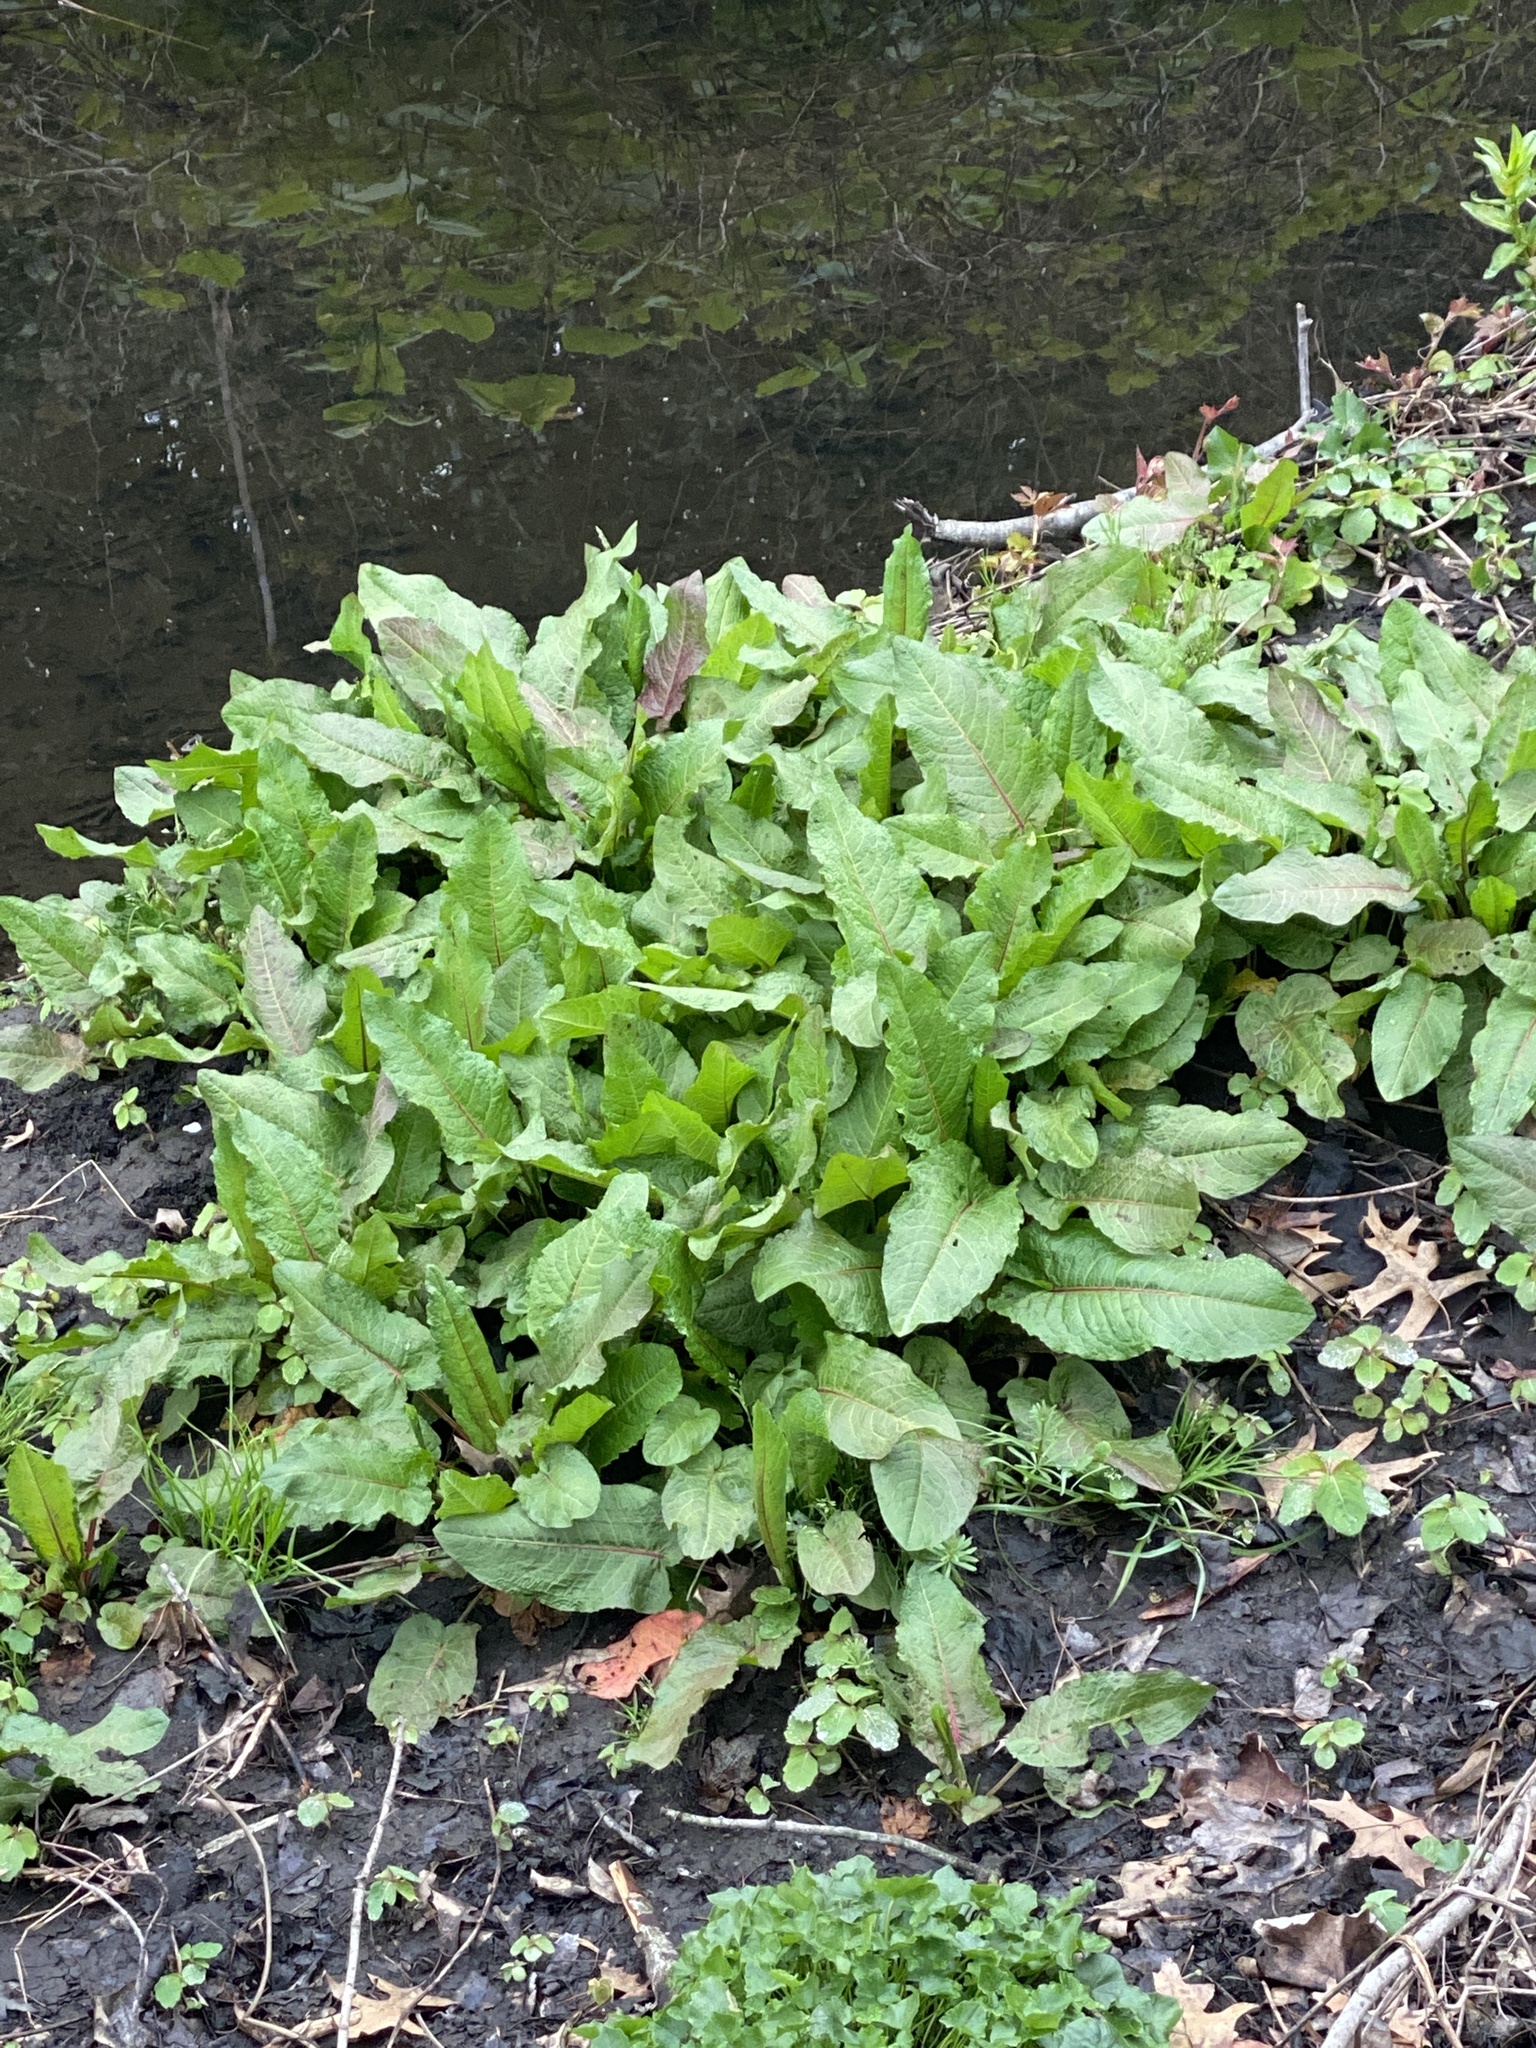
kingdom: Plantae
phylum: Tracheophyta
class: Magnoliopsida
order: Caryophyllales
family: Polygonaceae
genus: Rumex
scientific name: Rumex obtusifolius
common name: Bitter dock
